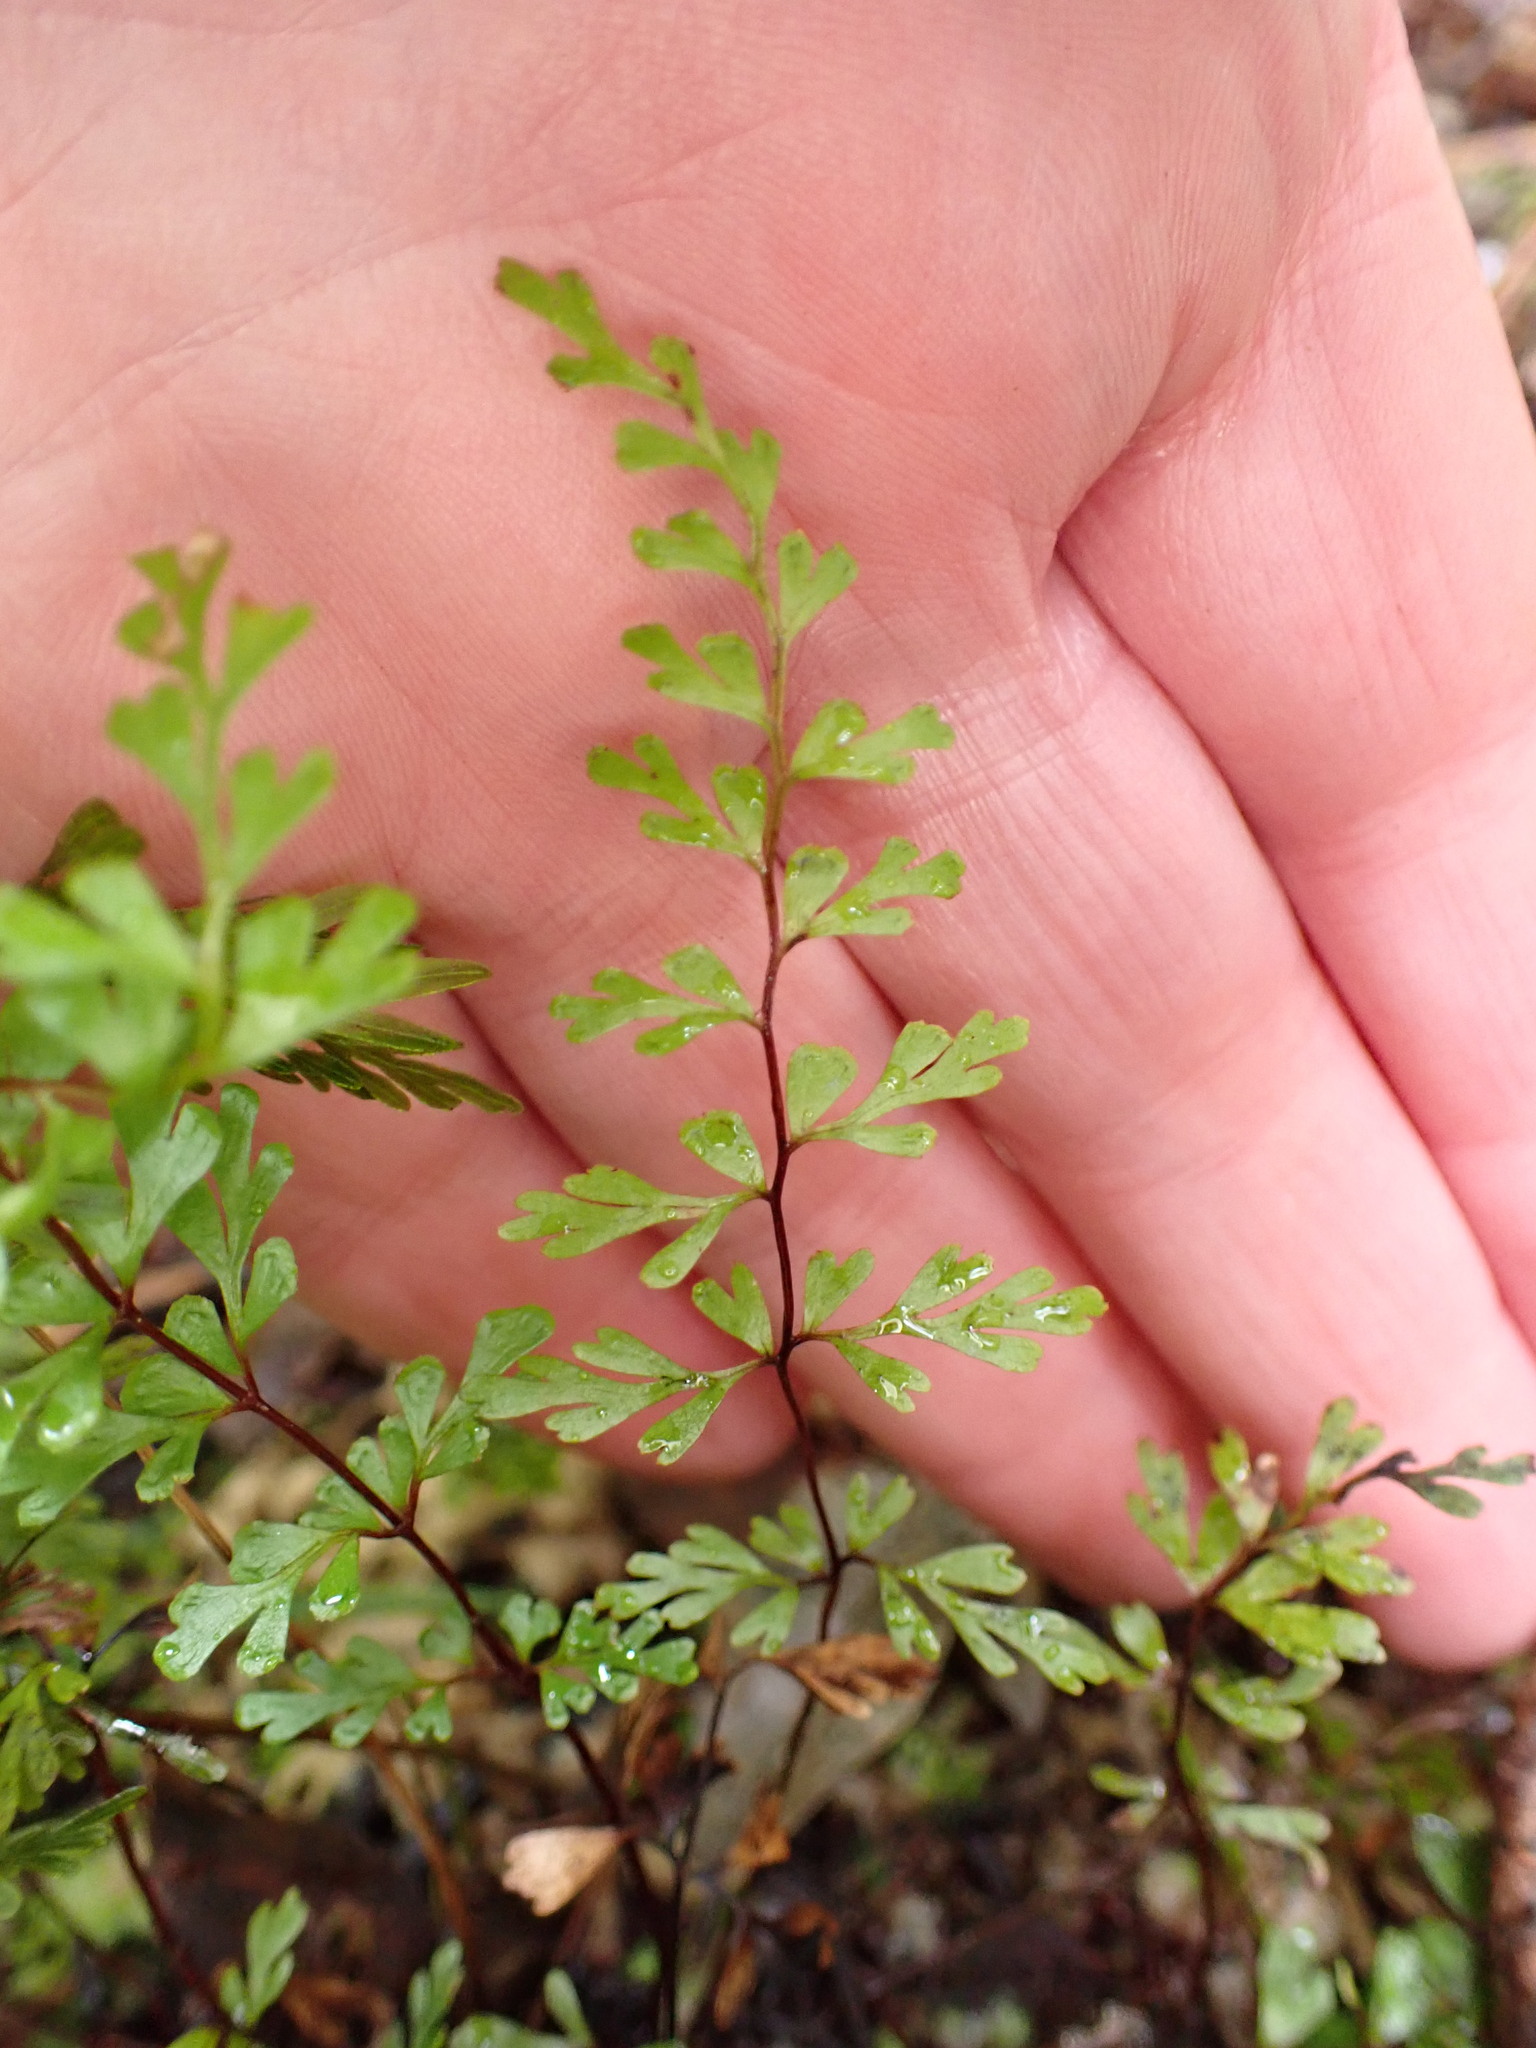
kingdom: Plantae
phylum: Tracheophyta
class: Polypodiopsida
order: Polypodiales
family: Lindsaeaceae
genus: Lindsaea
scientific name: Lindsaea trichomanoides
